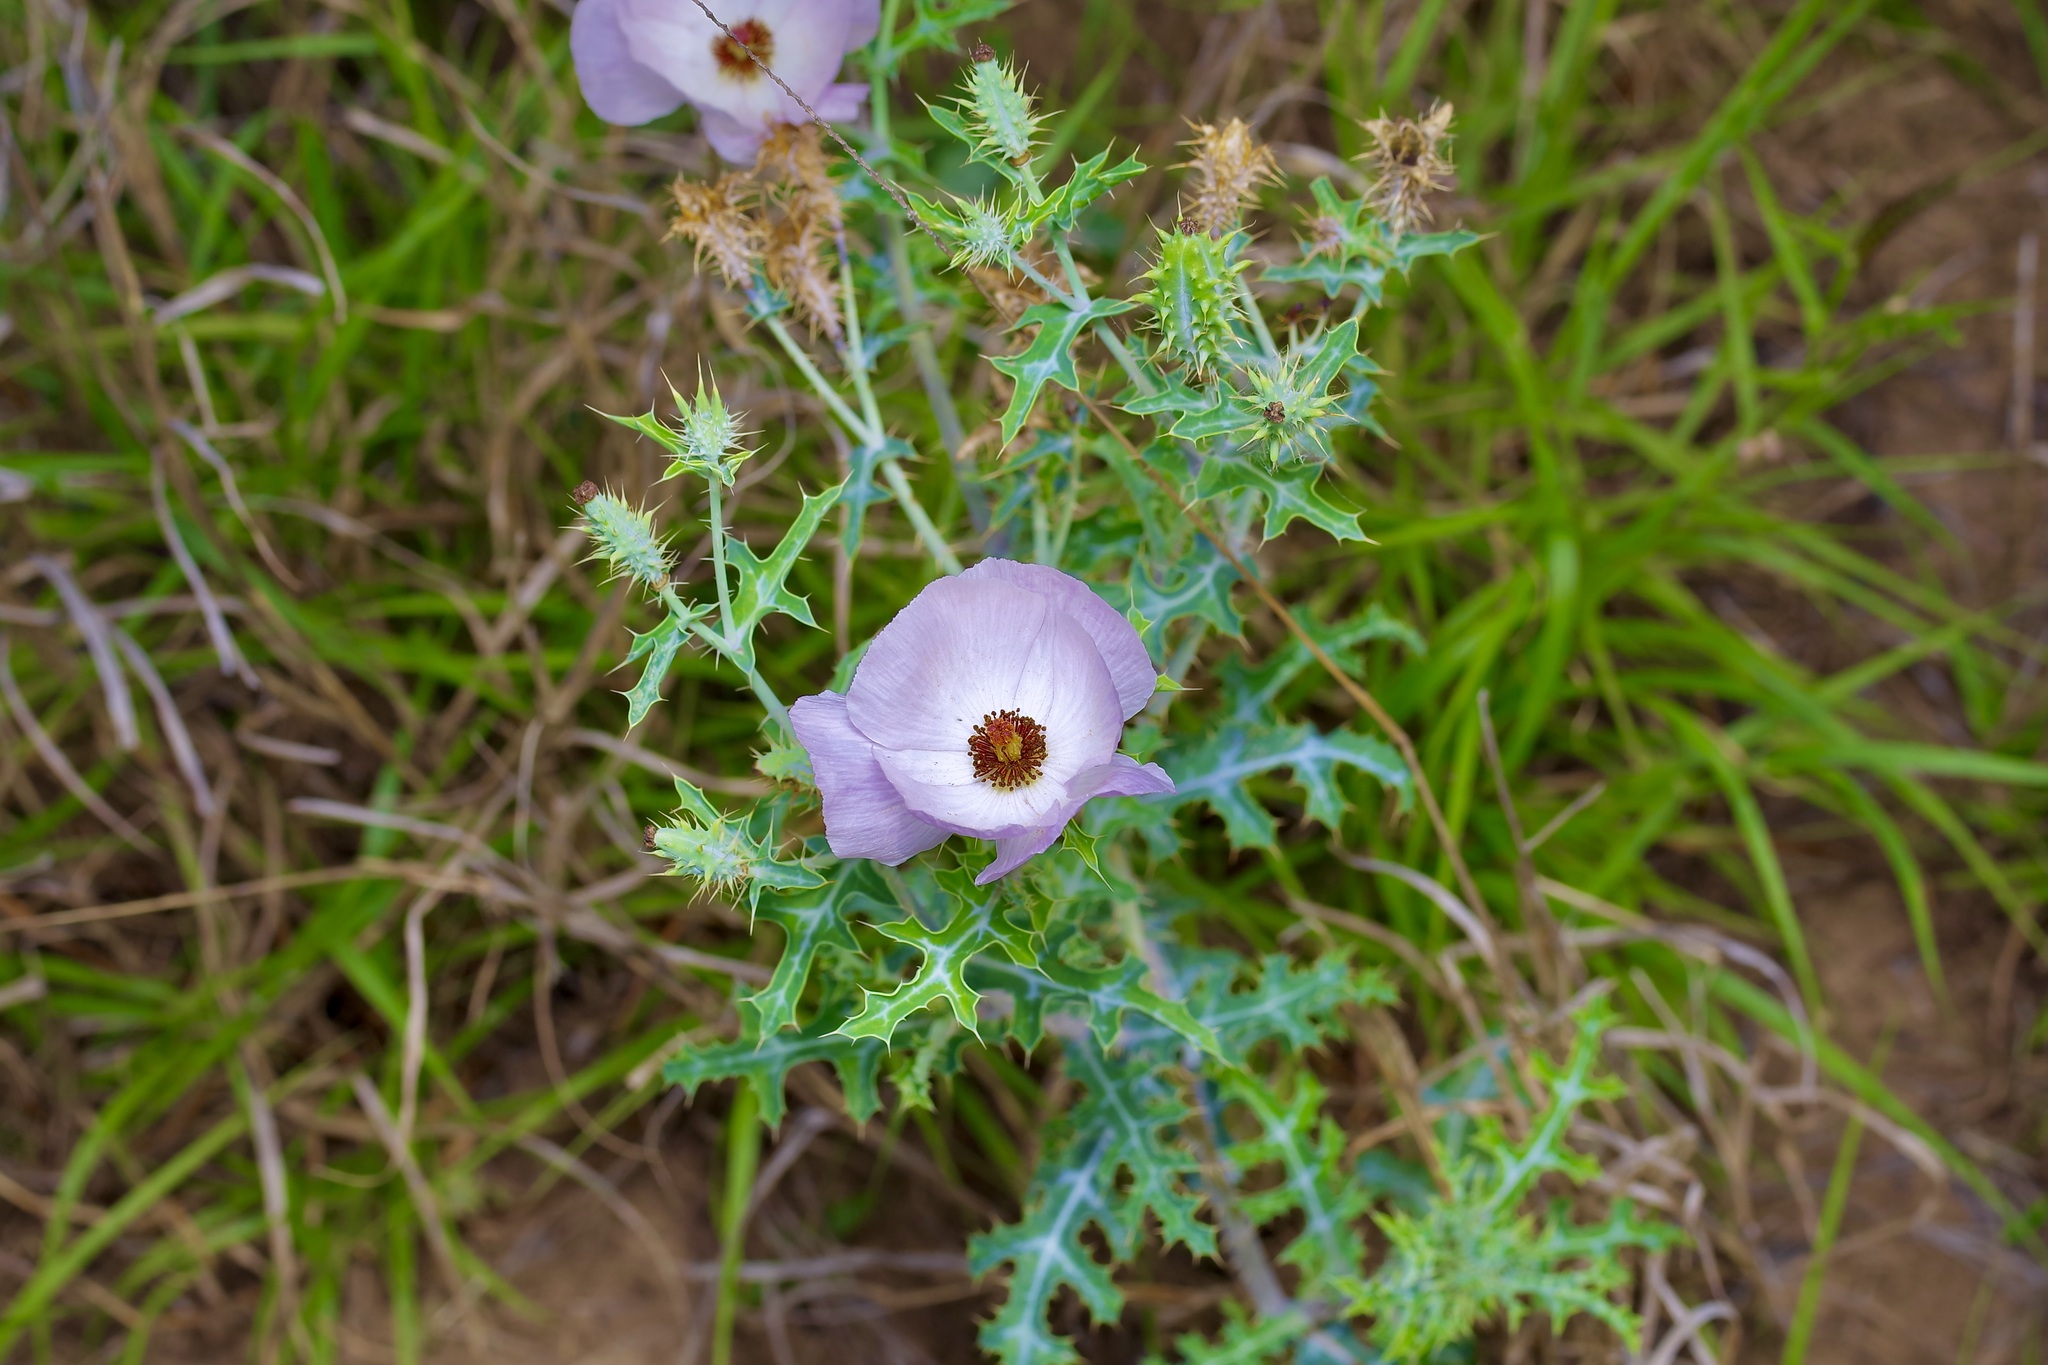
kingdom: Plantae
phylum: Tracheophyta
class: Magnoliopsida
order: Ranunculales
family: Papaveraceae
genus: Argemone
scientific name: Argemone sanguinea
